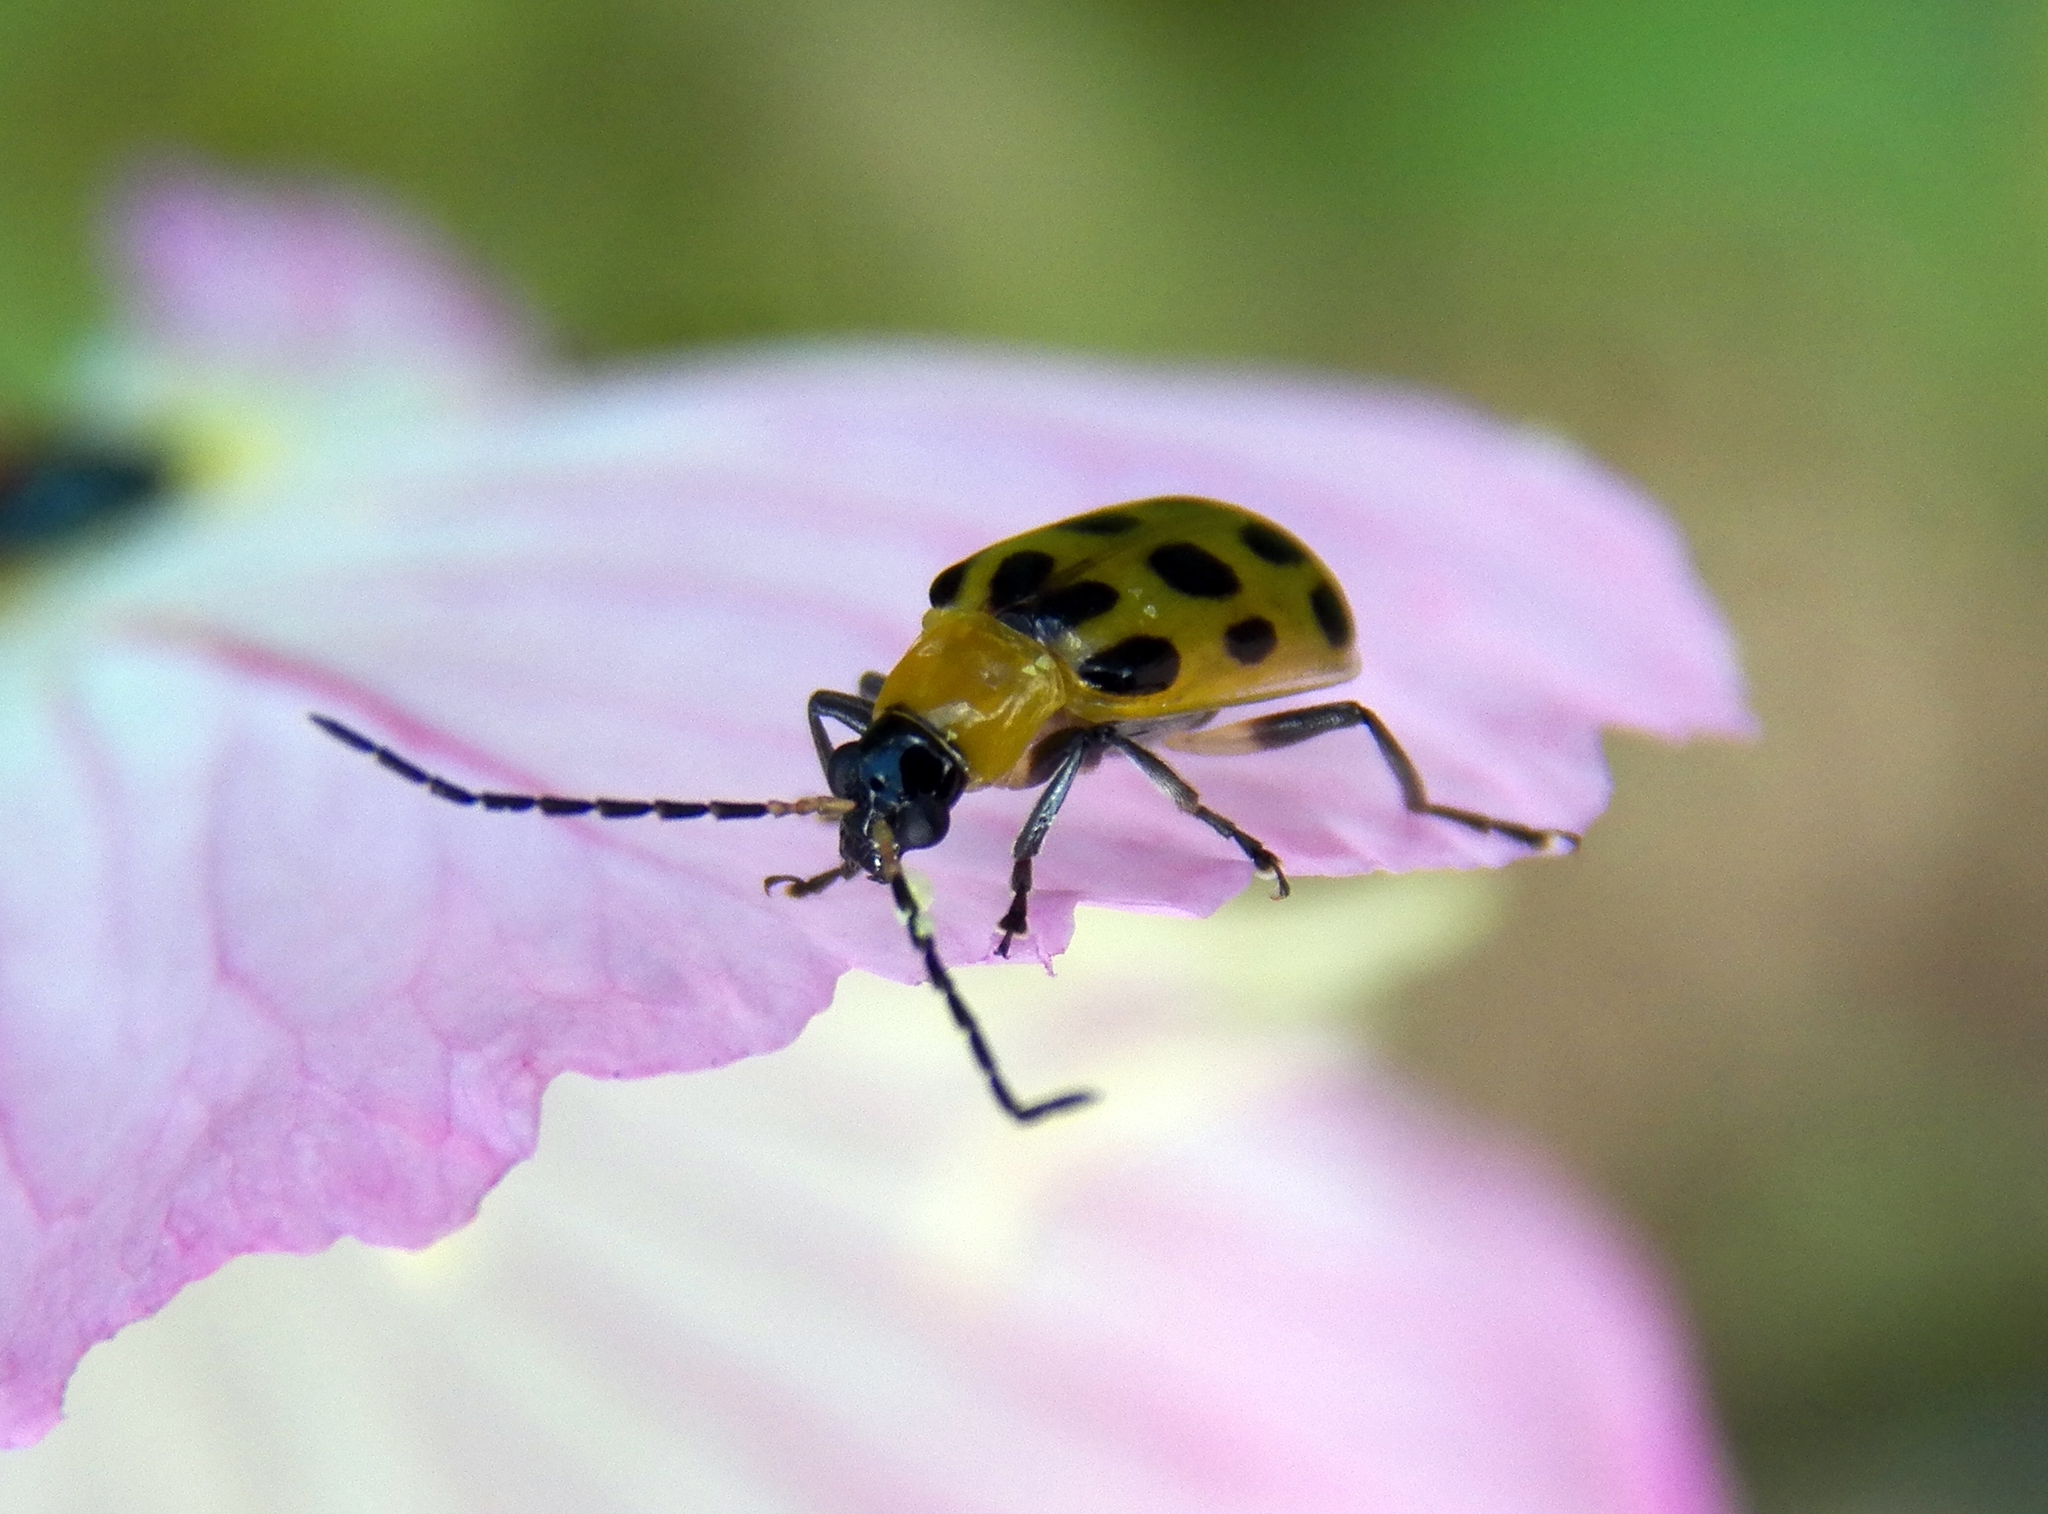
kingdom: Animalia
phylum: Arthropoda
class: Insecta
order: Coleoptera
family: Chrysomelidae
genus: Diabrotica
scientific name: Diabrotica undecimpunctata
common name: Spotted cucumber beetle
